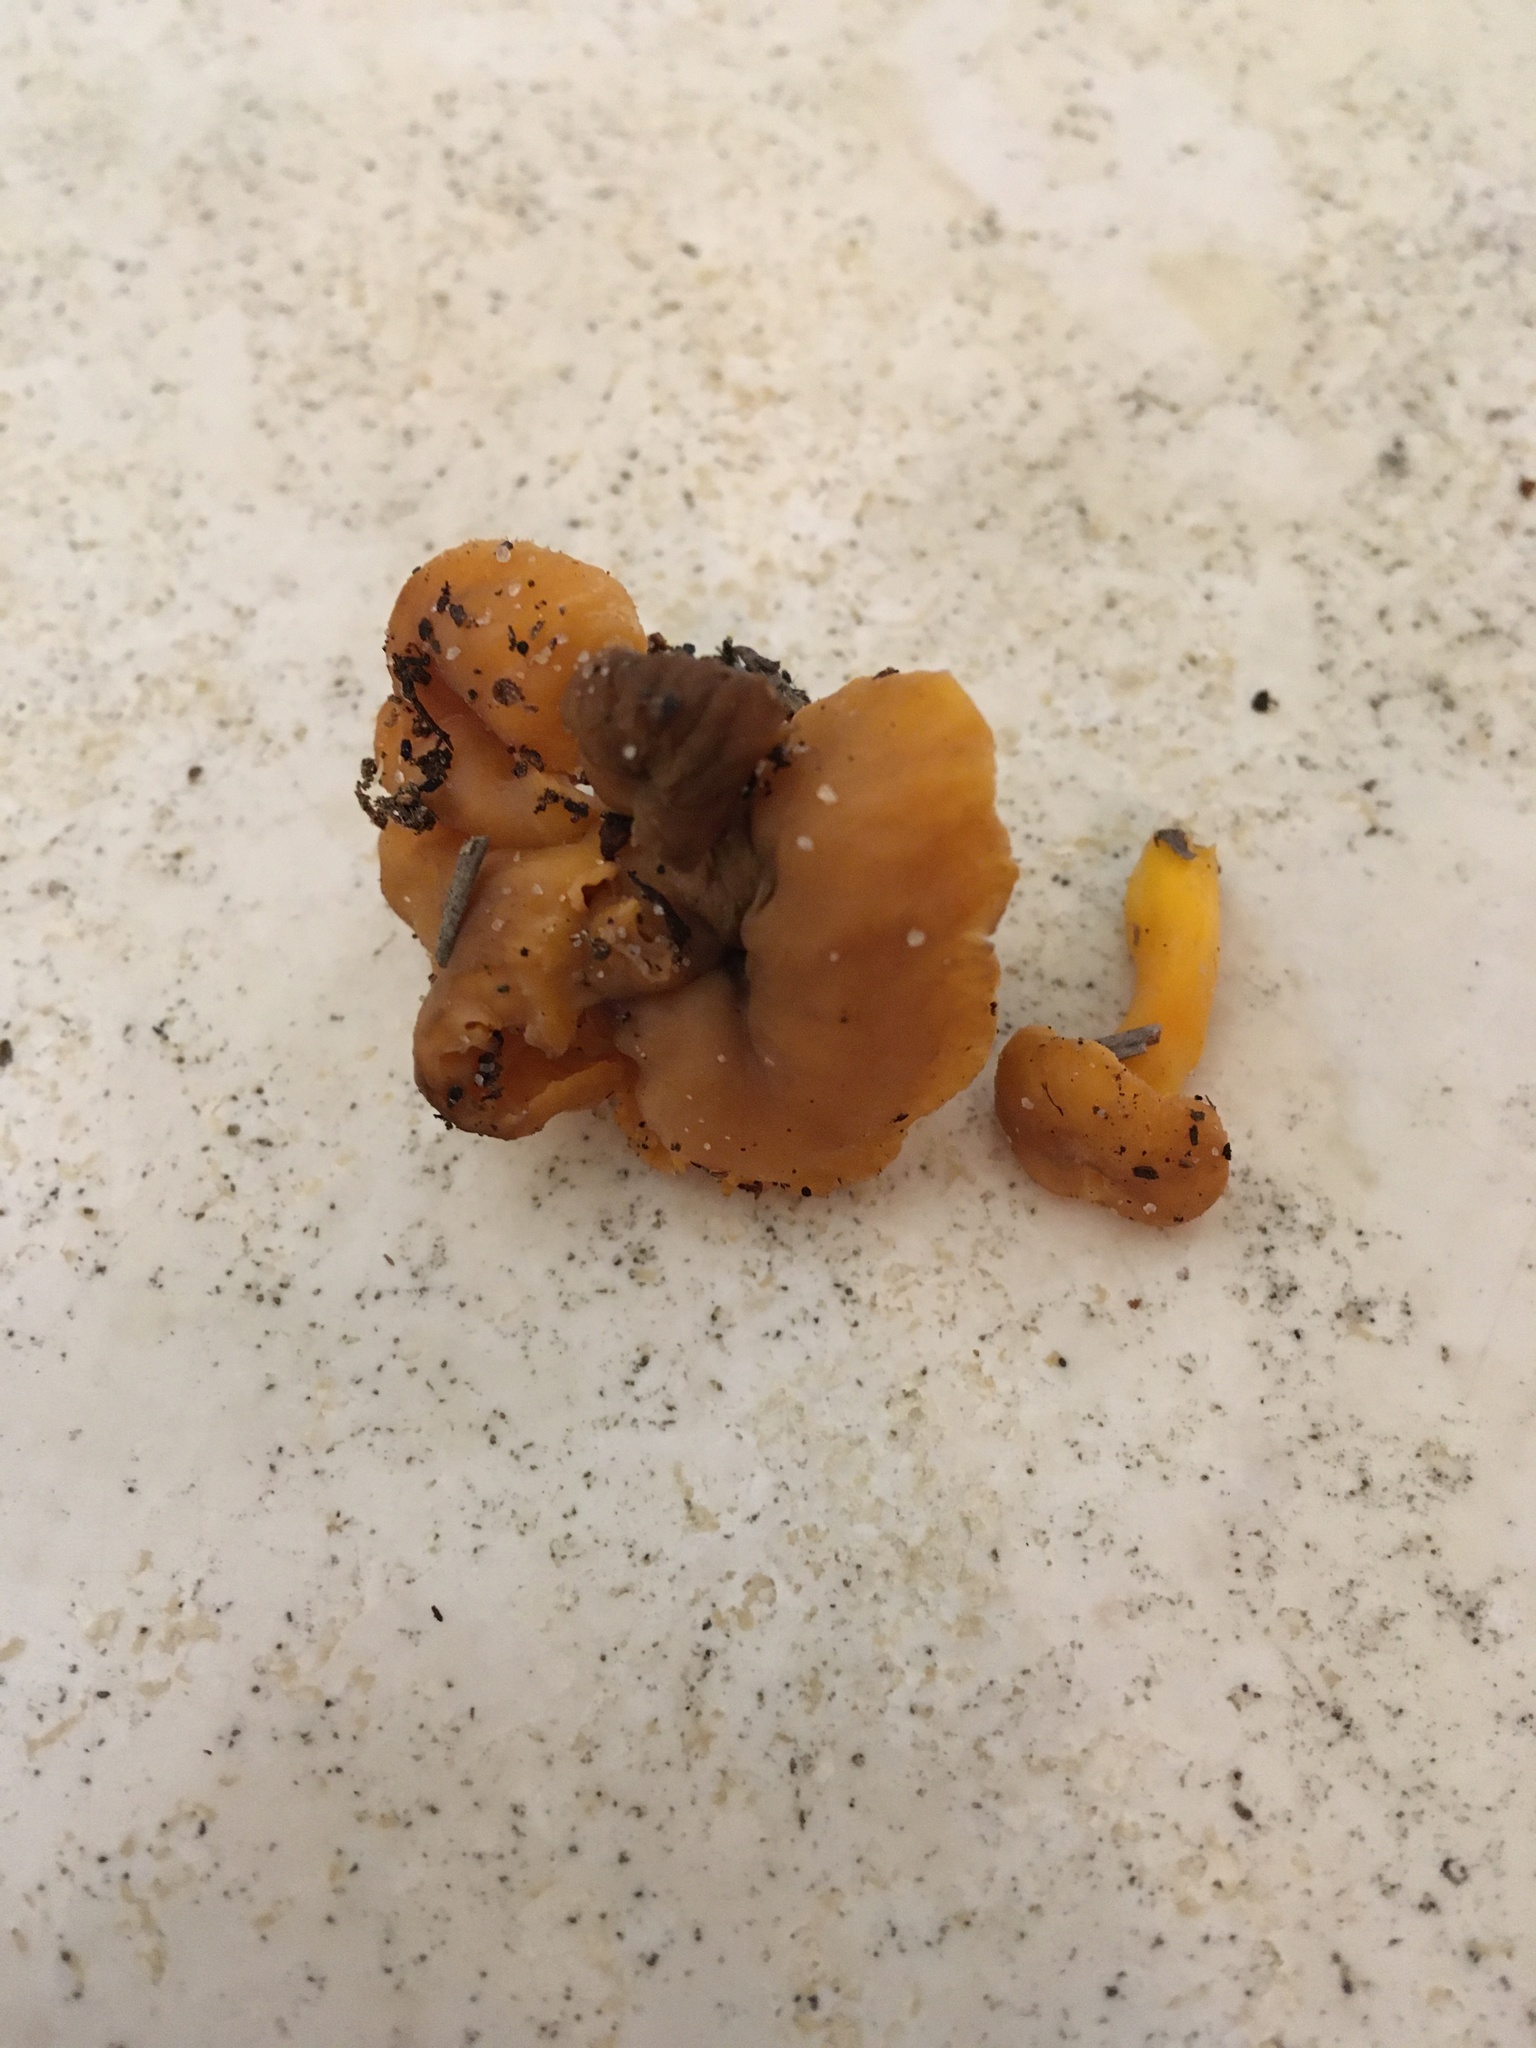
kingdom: Fungi
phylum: Basidiomycota
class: Agaricomycetes
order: Cantharellales
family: Hydnaceae
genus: Cantharellus
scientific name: Cantharellus minor
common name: Small chanterelle
